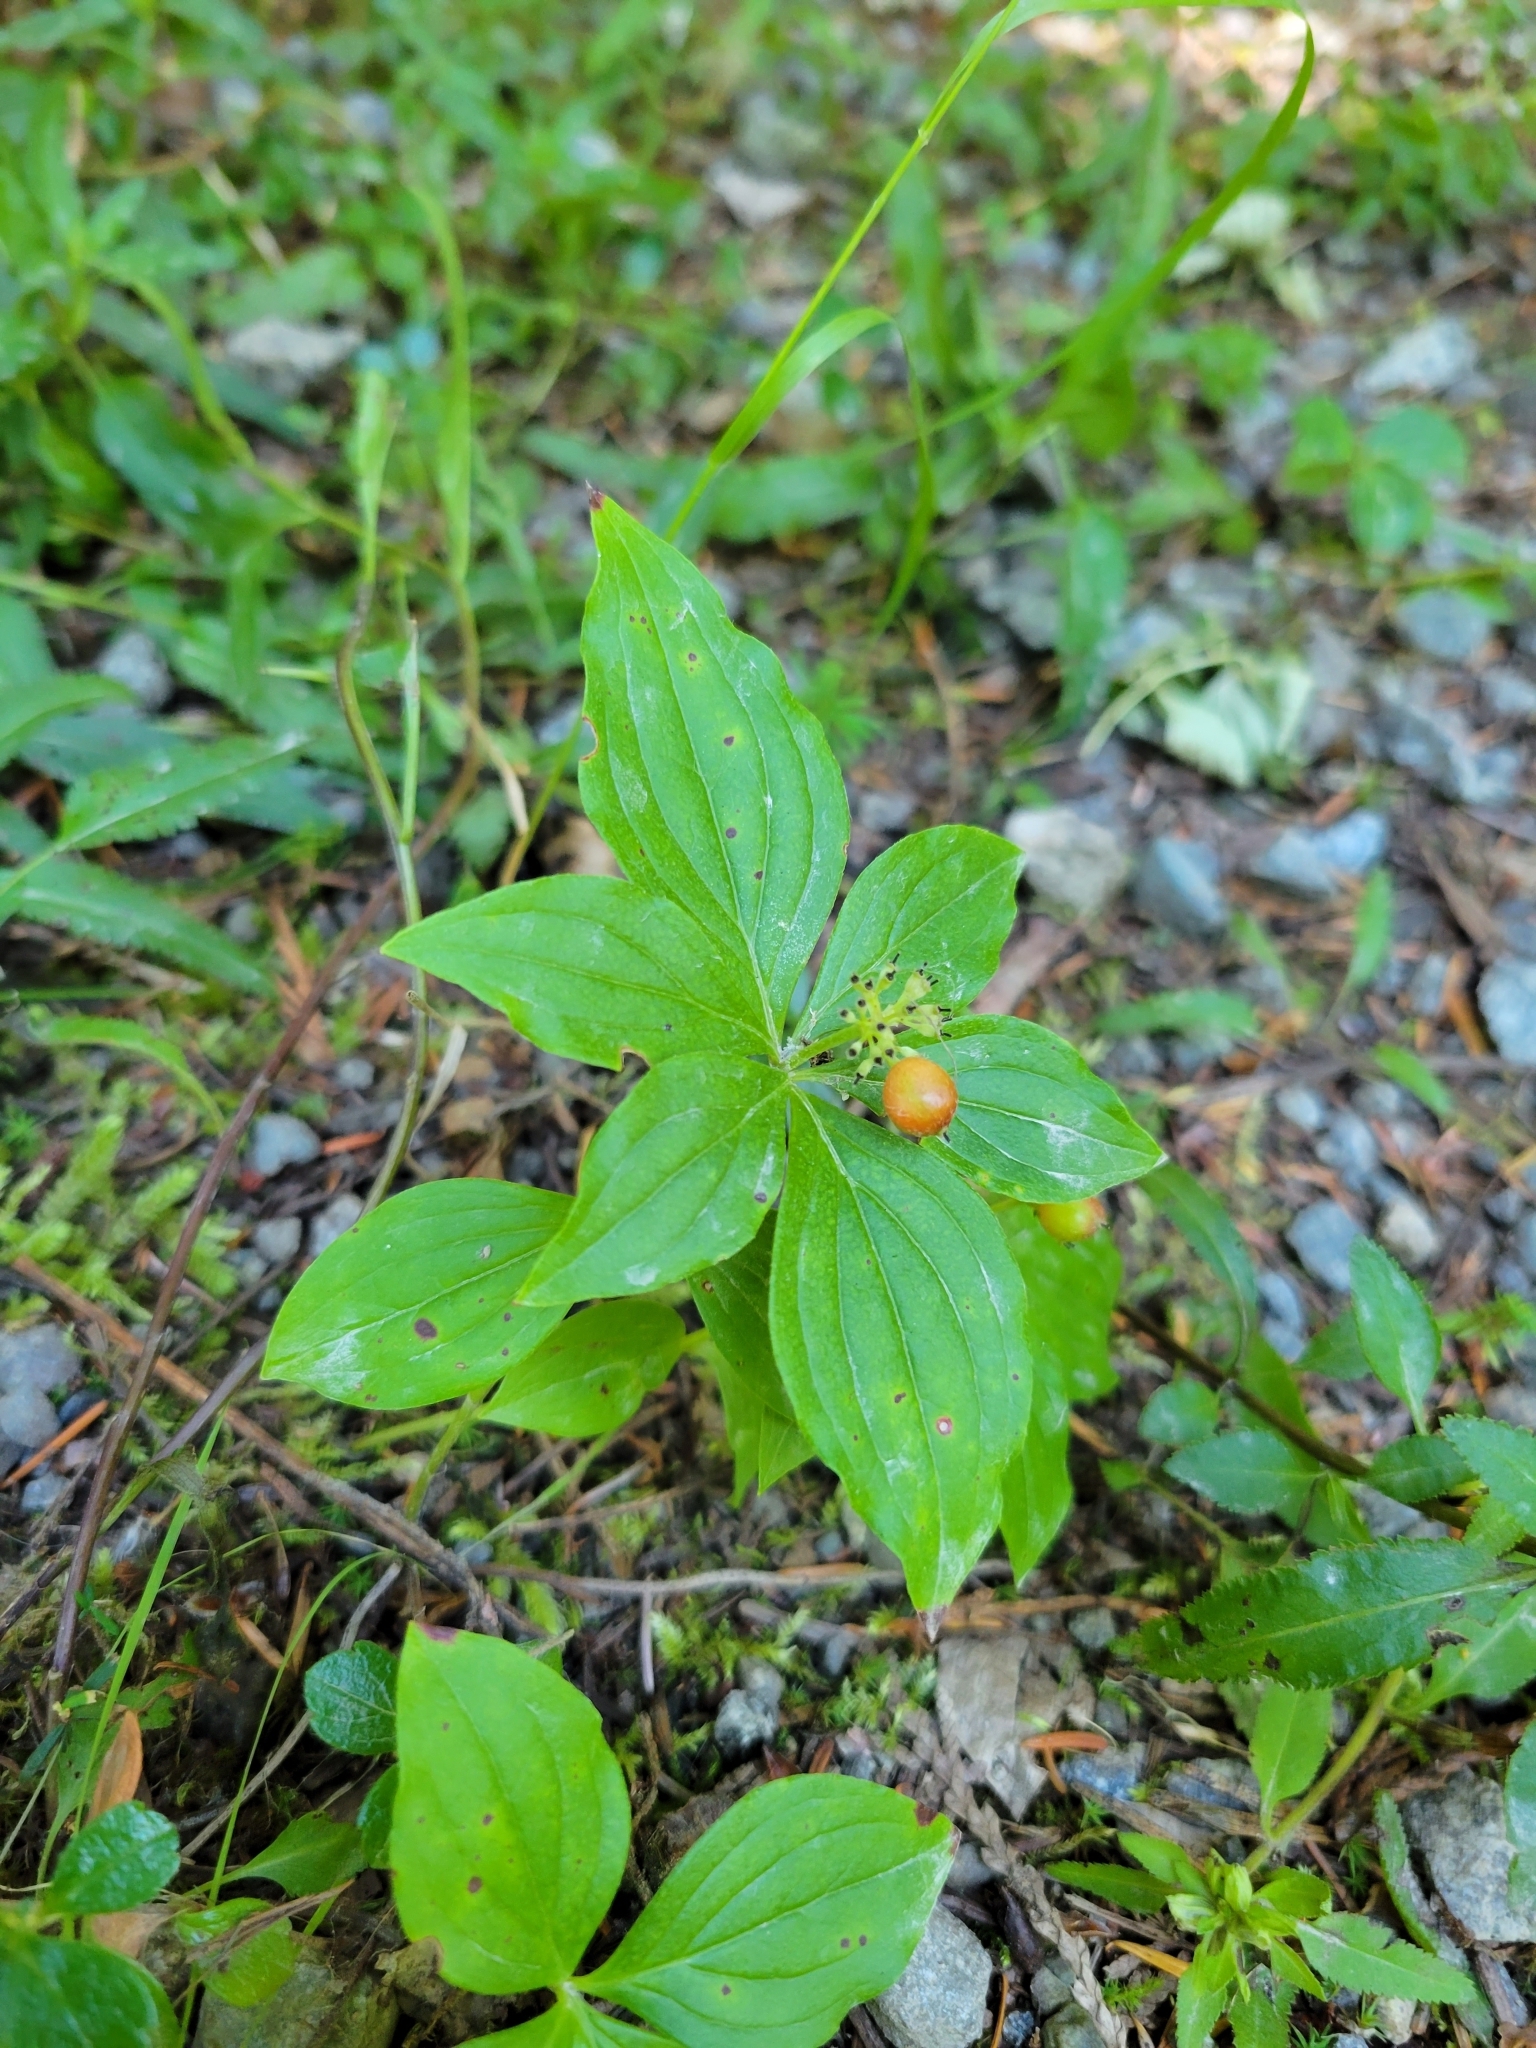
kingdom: Plantae
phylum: Tracheophyta
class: Magnoliopsida
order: Cornales
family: Cornaceae
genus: Cornus
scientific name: Cornus unalaschkensis
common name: Alaska bunchberry
